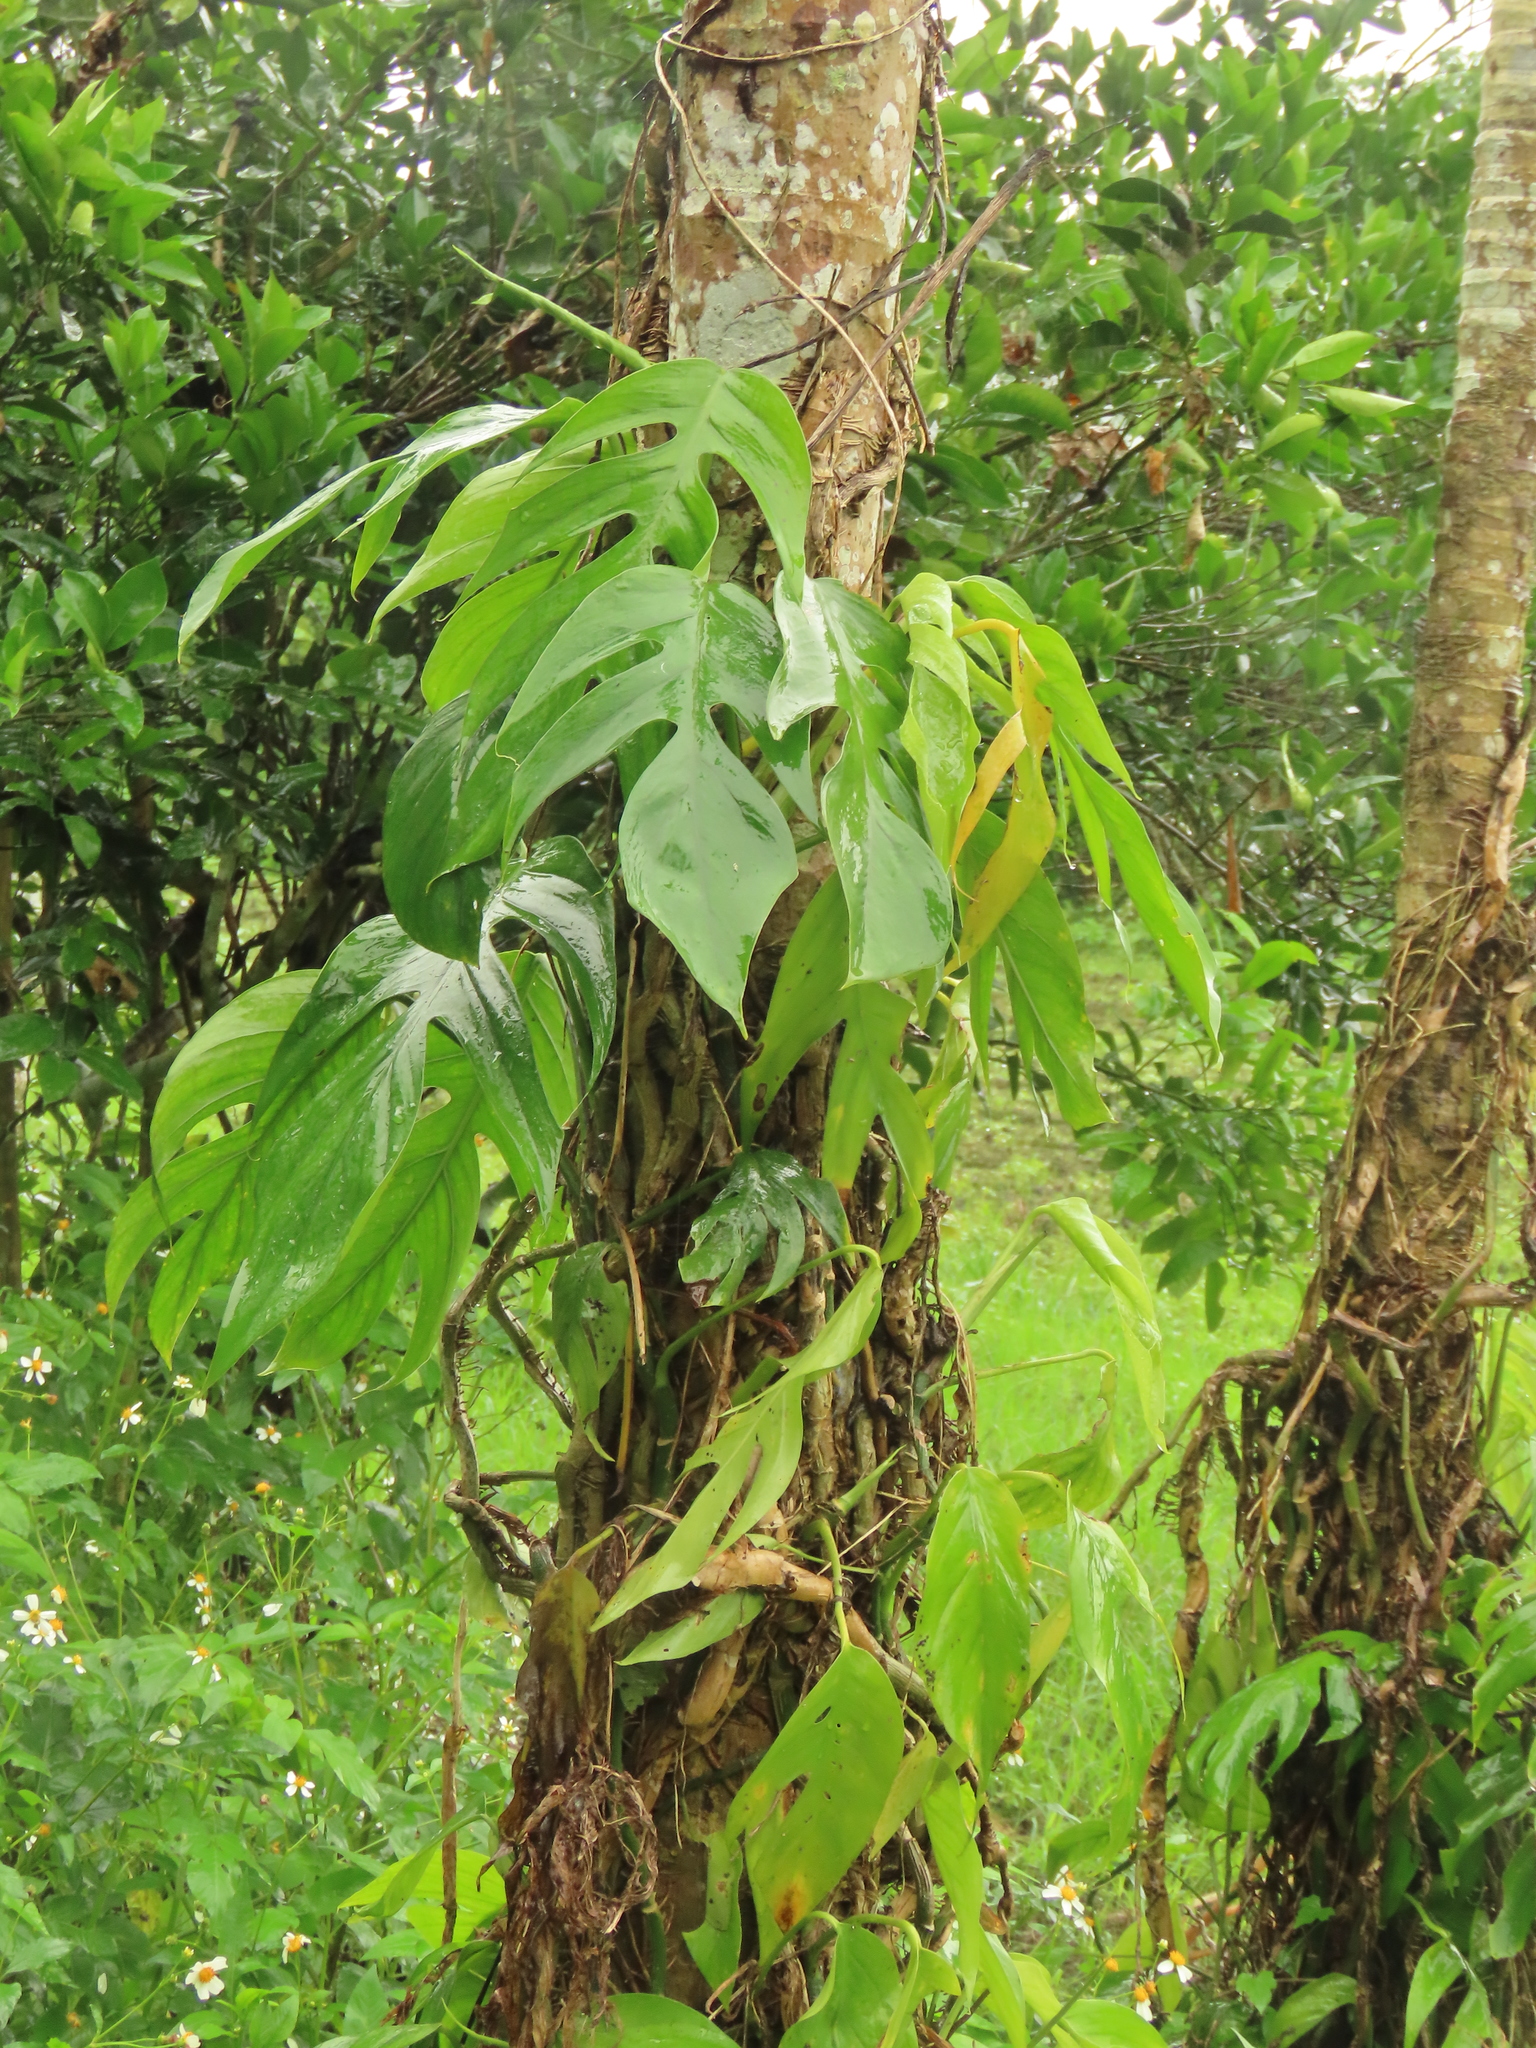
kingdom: Plantae
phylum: Tracheophyta
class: Liliopsida
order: Alismatales
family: Araceae
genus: Epipremnum
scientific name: Epipremnum pinnatum
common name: Centipede tongavine
